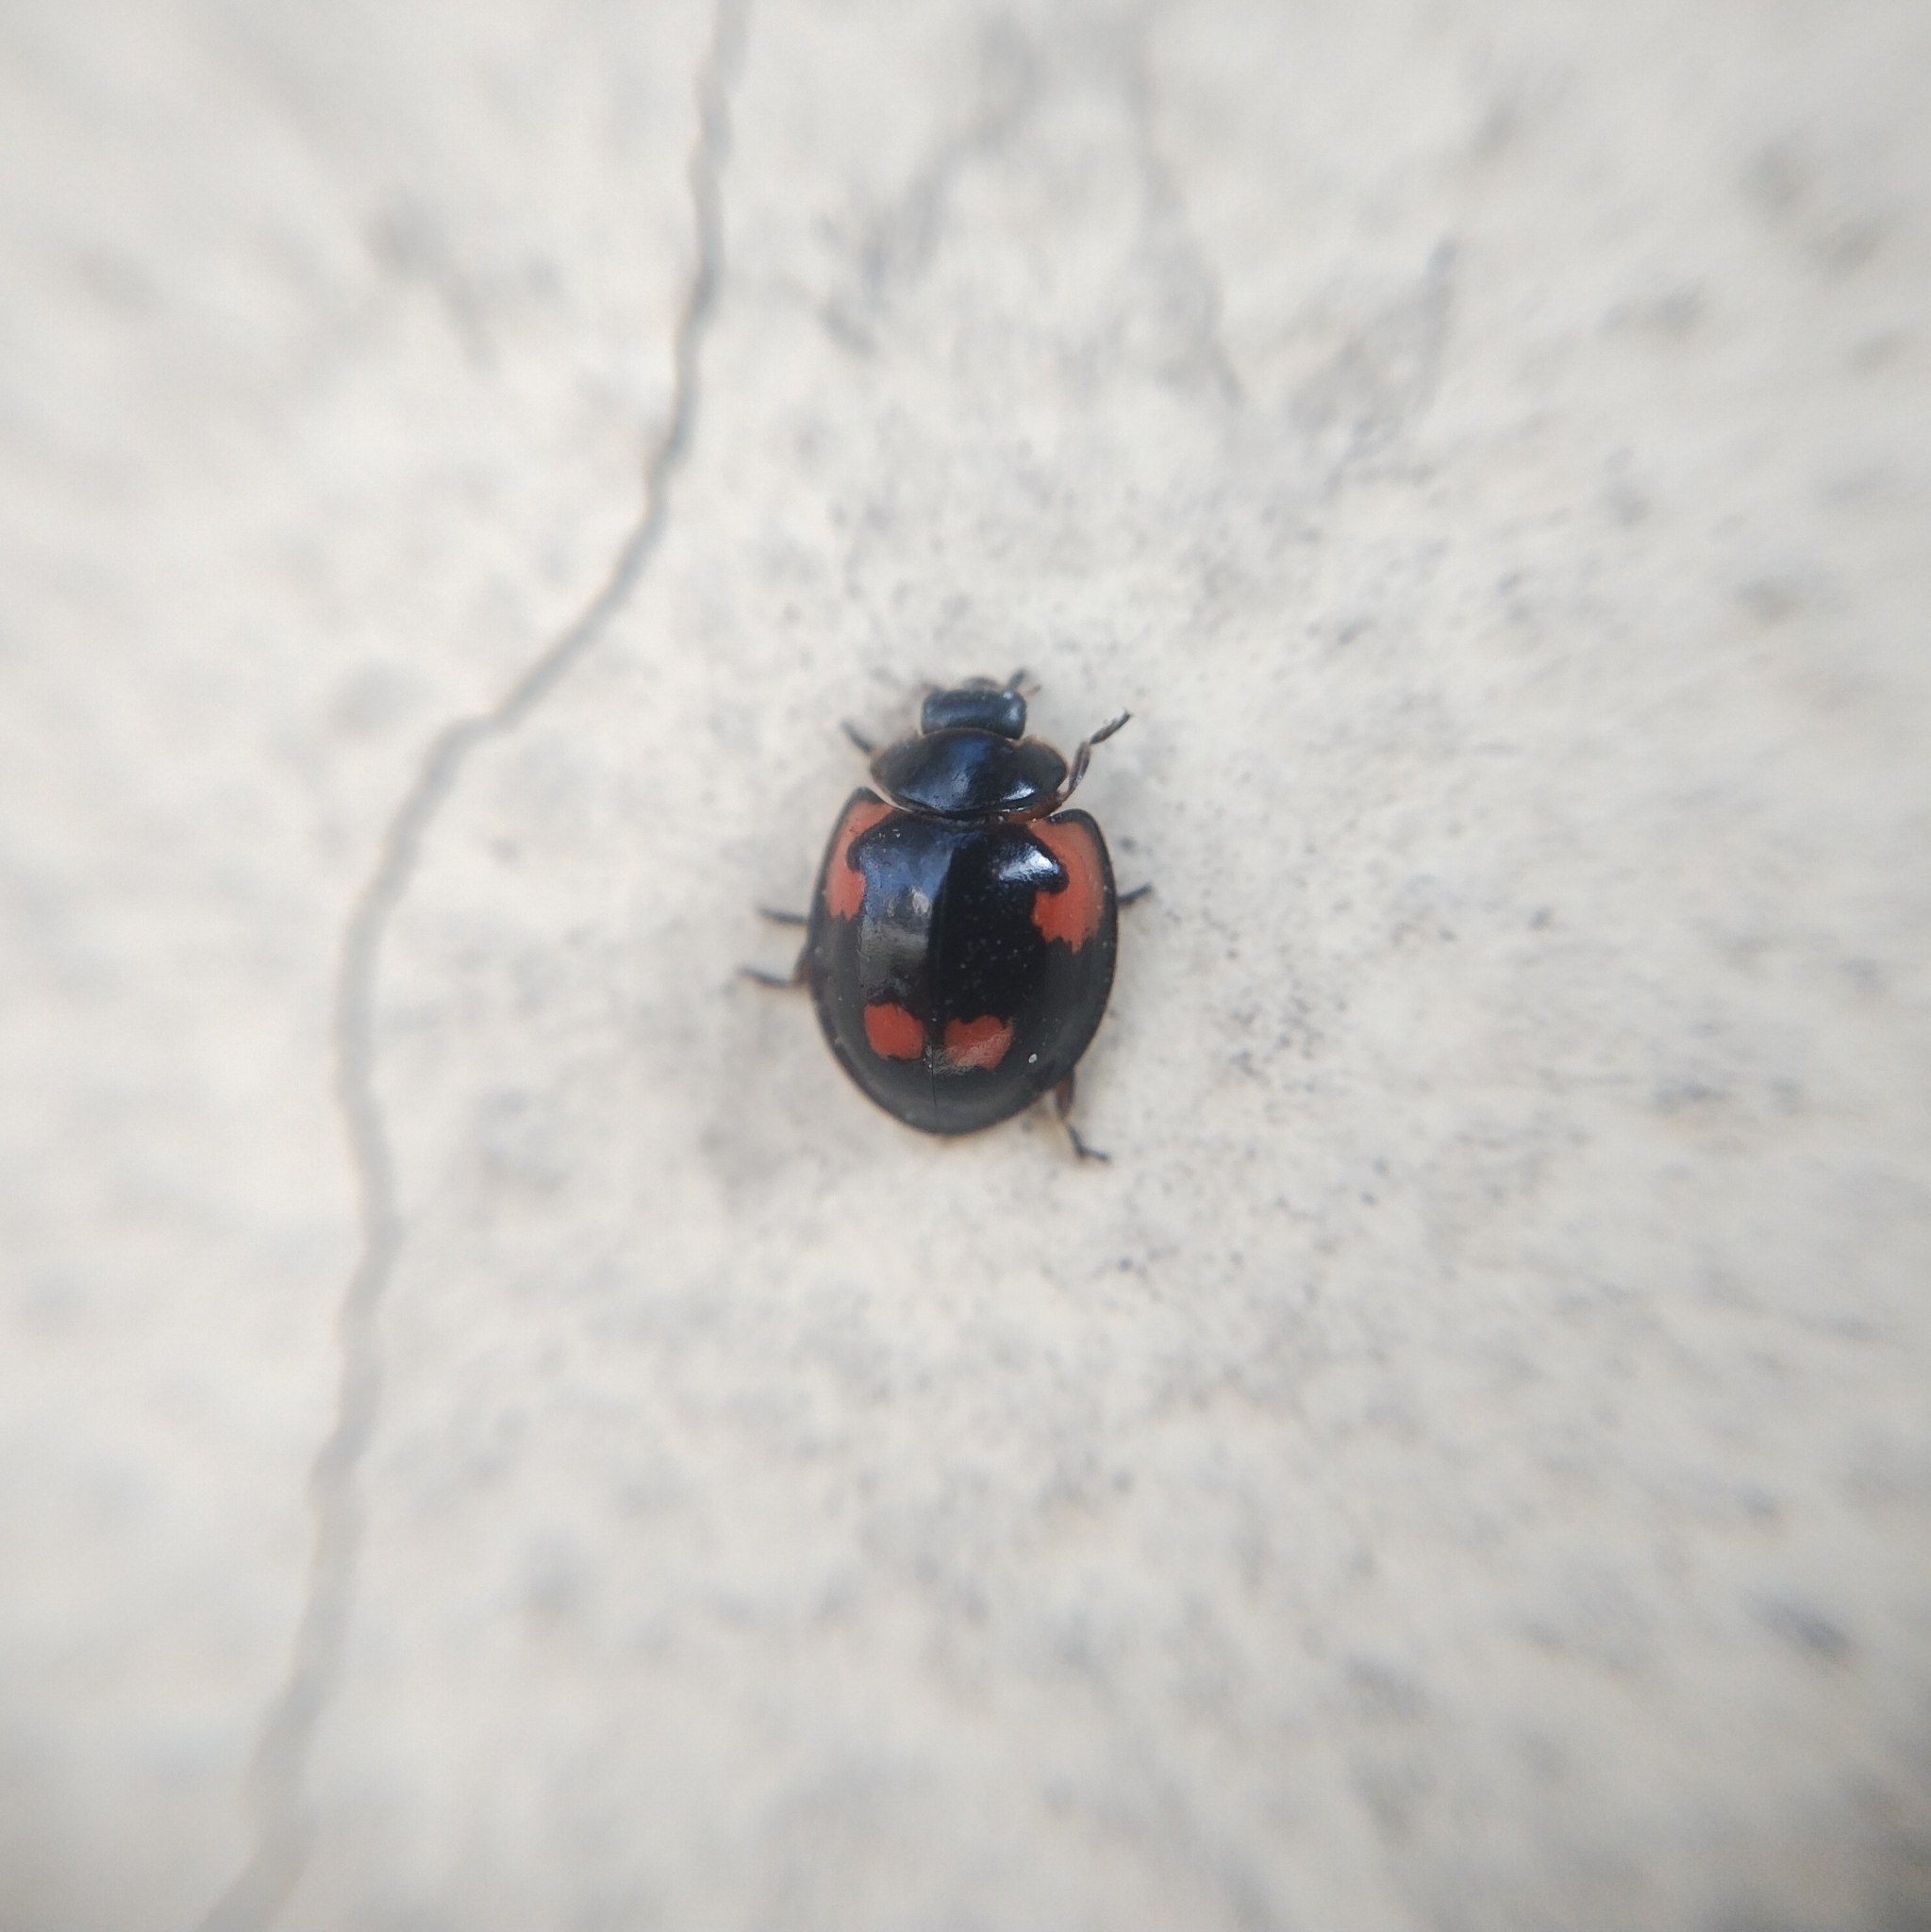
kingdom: Animalia
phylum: Arthropoda
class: Insecta
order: Coleoptera
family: Coccinellidae
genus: Brumus
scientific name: Brumus quadripustulatus
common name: Ladybird beetle
